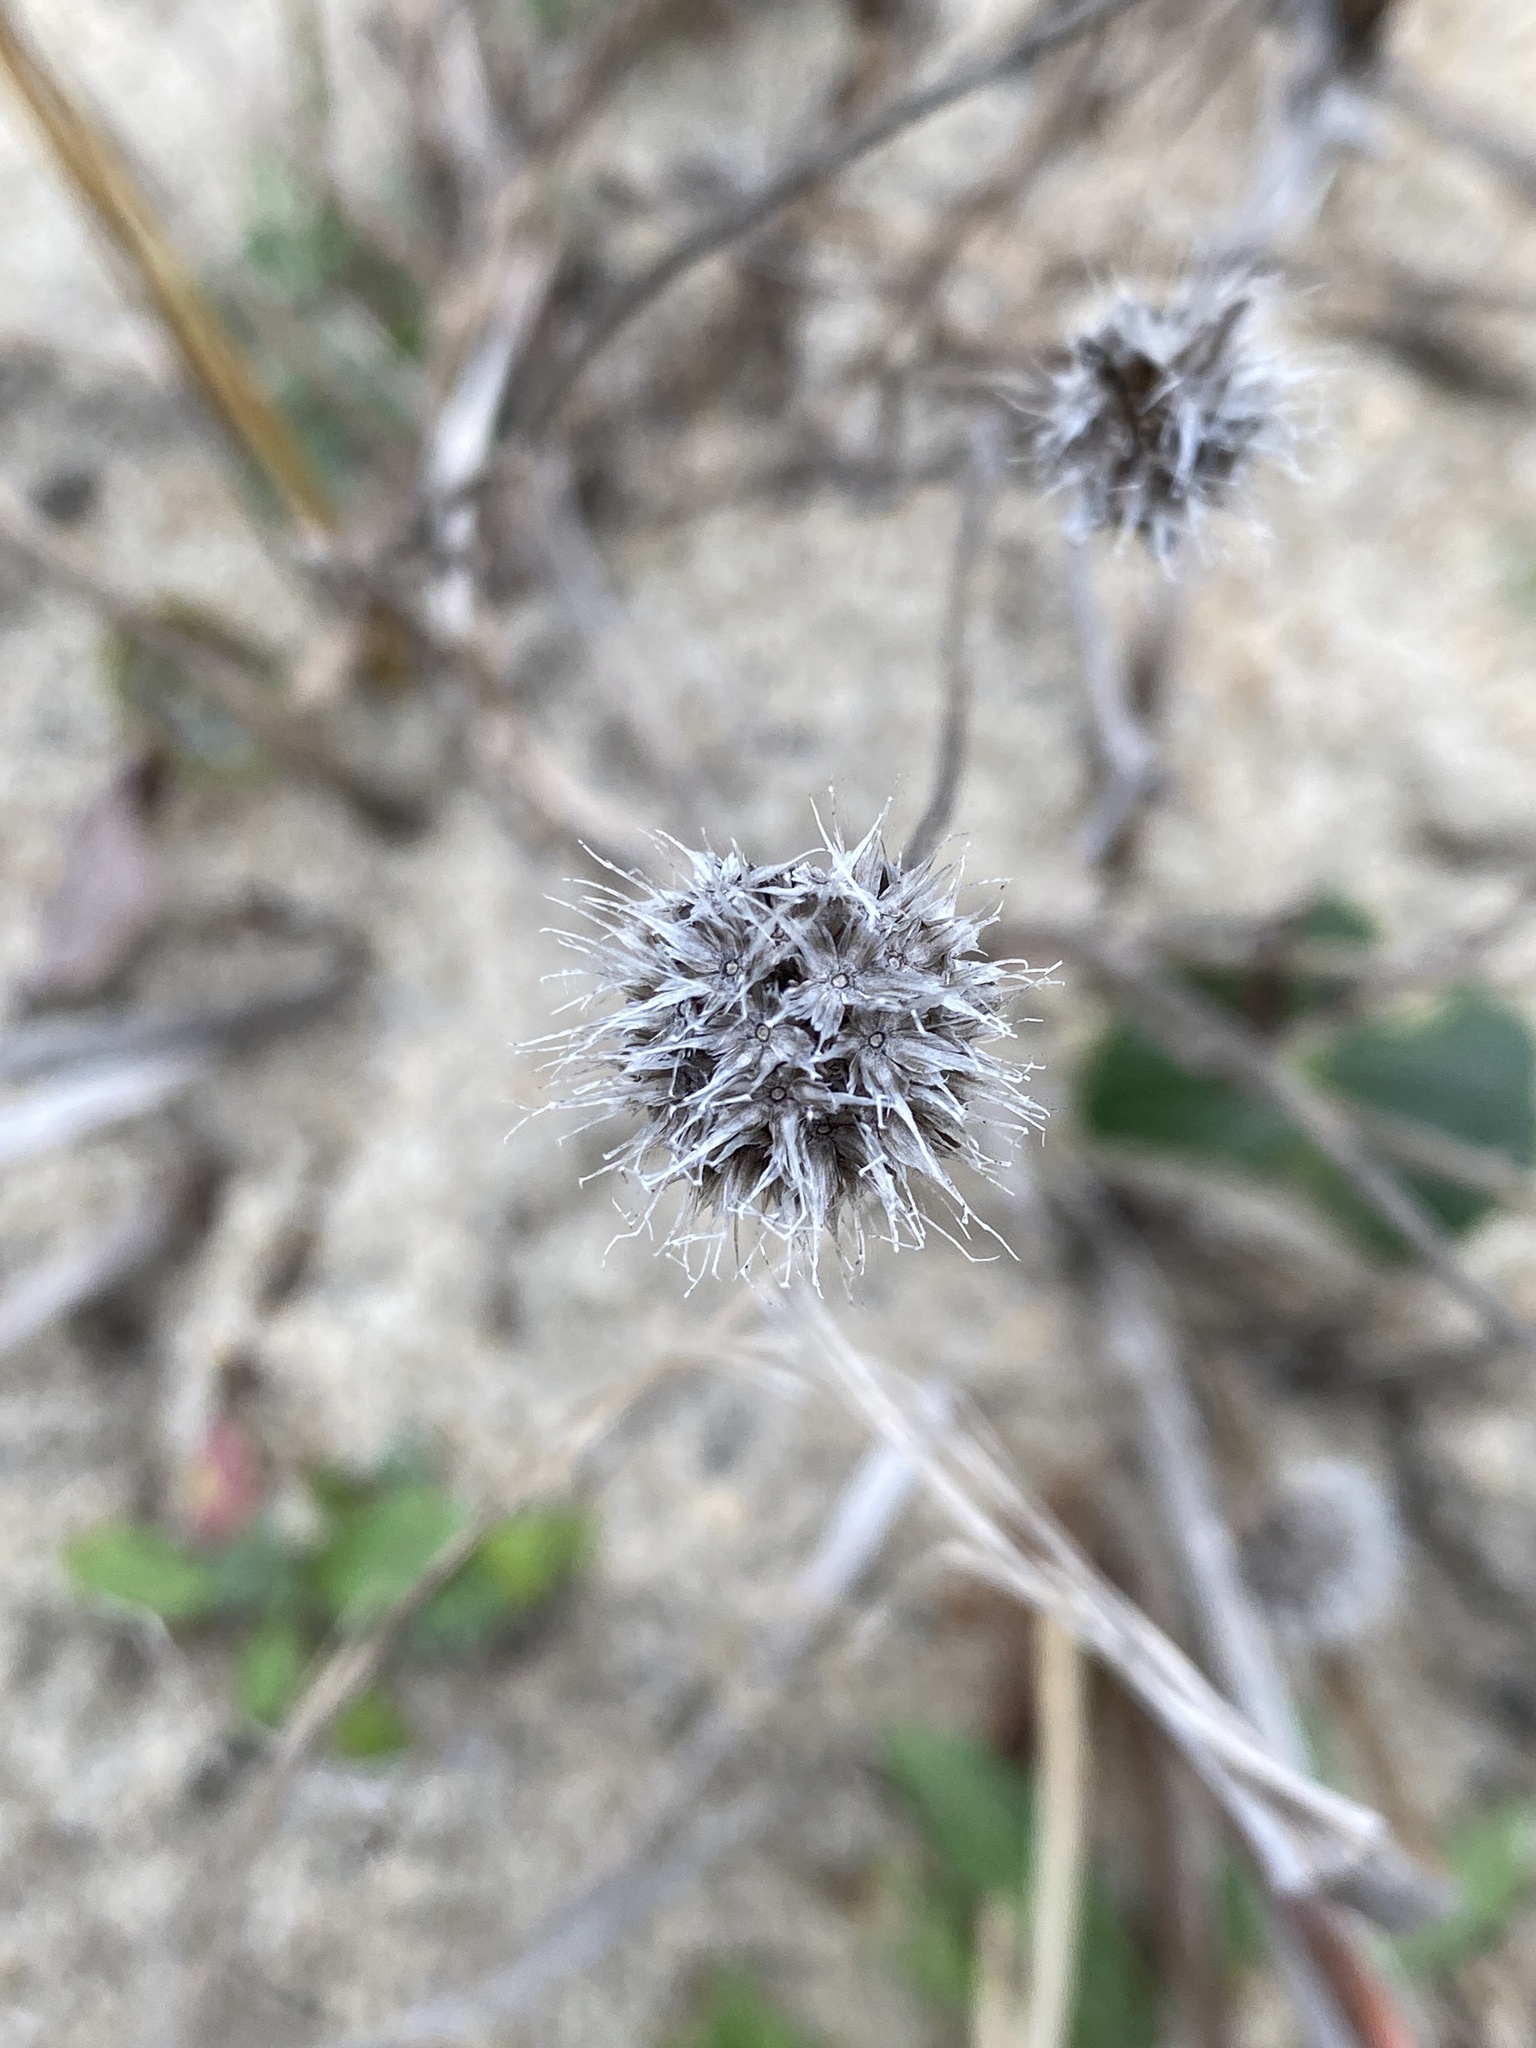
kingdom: Plantae
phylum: Tracheophyta
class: Magnoliopsida
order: Asterales
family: Asteraceae
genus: Gaillardia
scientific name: Gaillardia pulchella
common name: Firewheel
